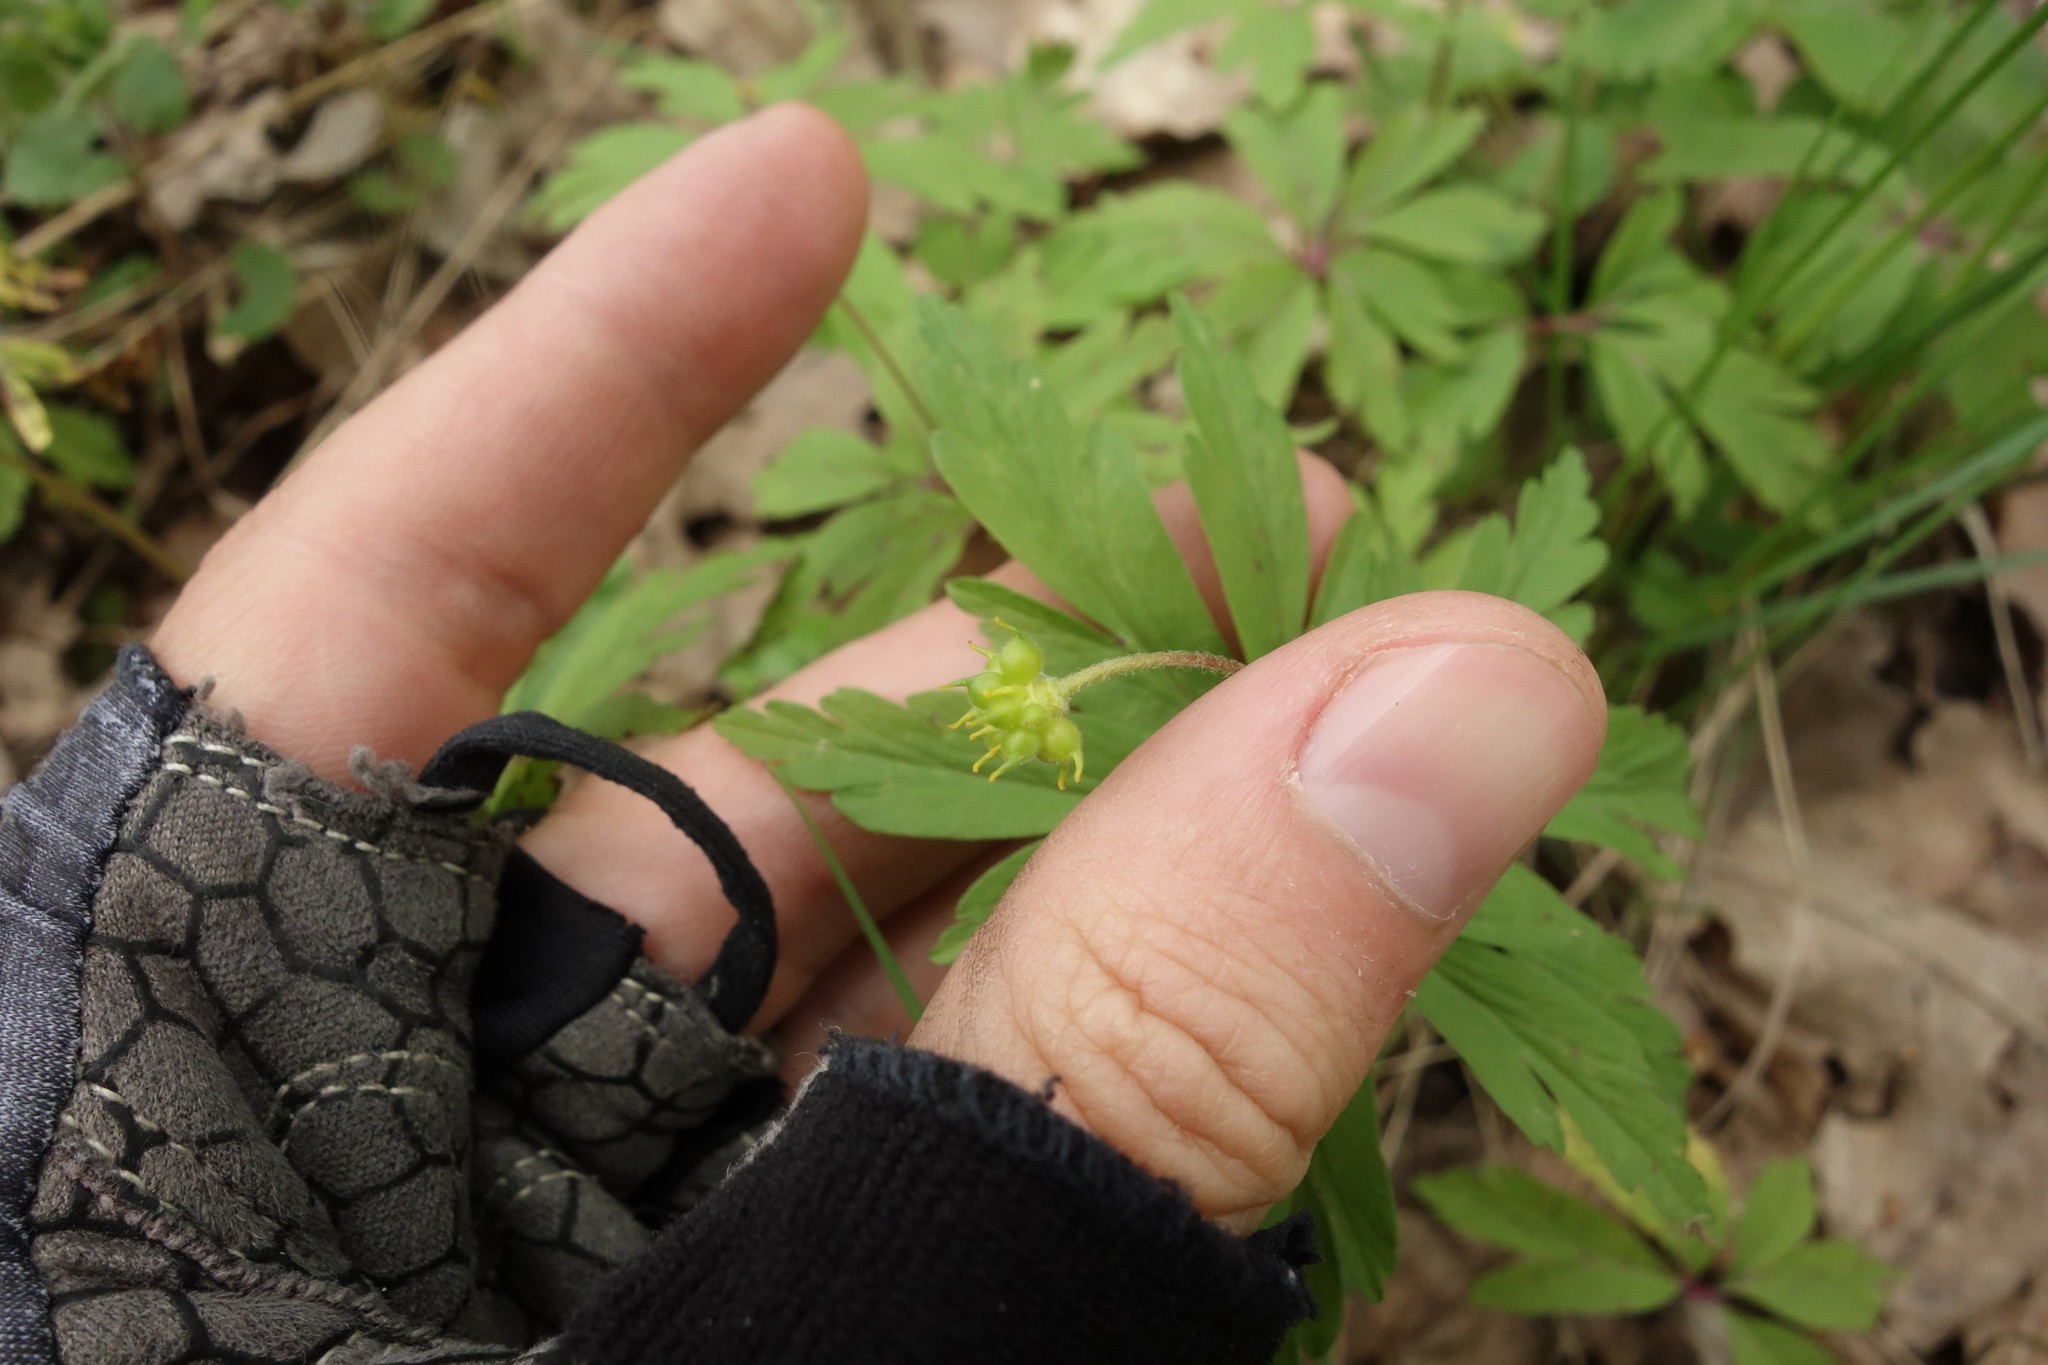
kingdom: Plantae
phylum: Tracheophyta
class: Magnoliopsida
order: Ranunculales
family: Ranunculaceae
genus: Anemone
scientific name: Anemone ranunculoides
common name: Yellow anemone
